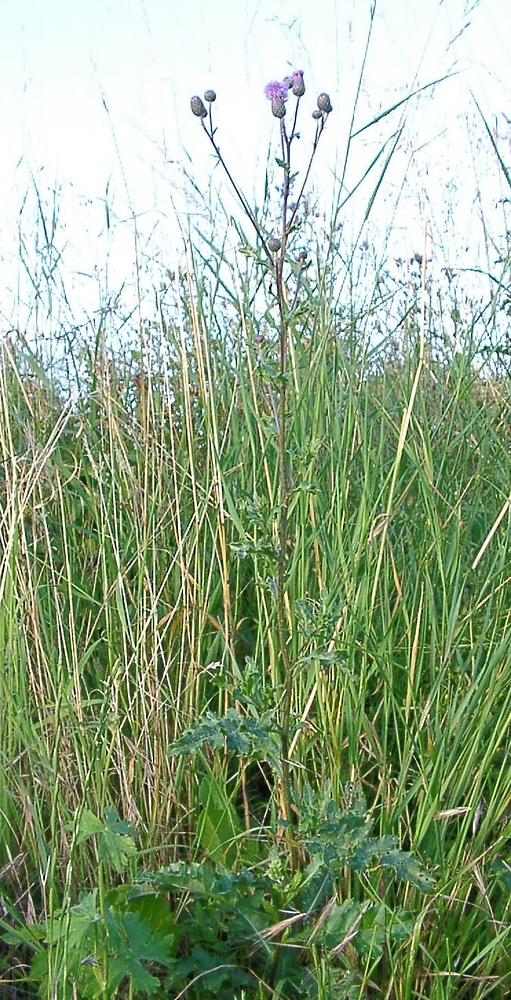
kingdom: Plantae
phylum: Tracheophyta
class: Magnoliopsida
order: Asterales
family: Asteraceae
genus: Cirsium
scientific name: Cirsium arvense
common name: Creeping thistle
